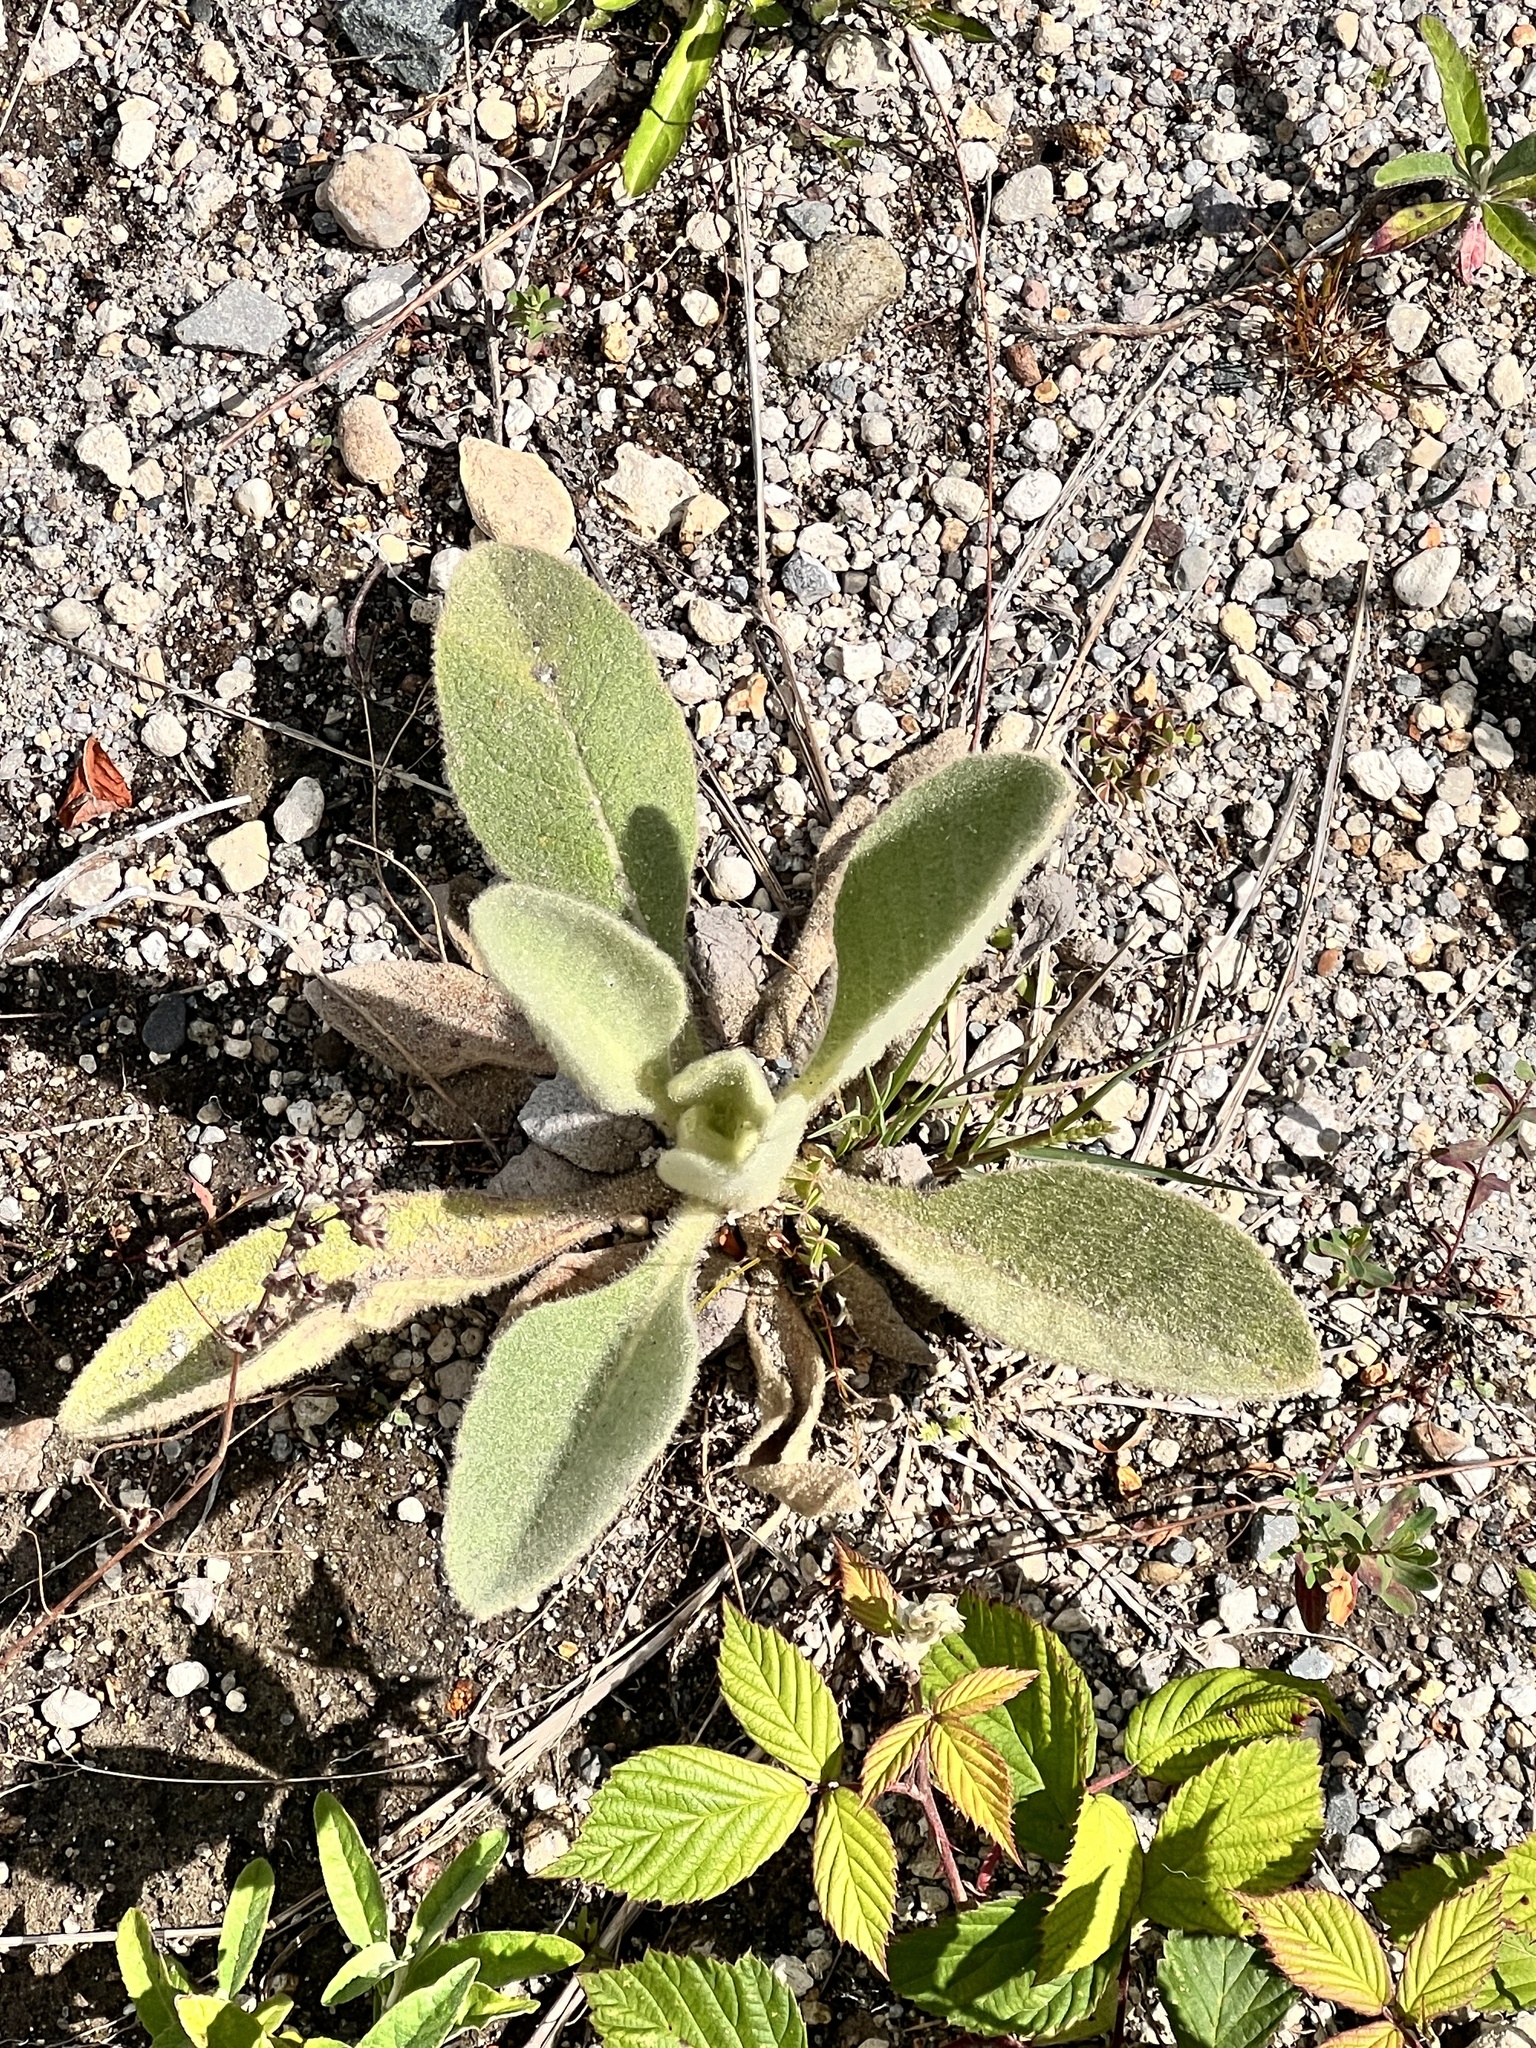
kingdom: Plantae
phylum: Tracheophyta
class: Magnoliopsida
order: Lamiales
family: Scrophulariaceae
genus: Verbascum
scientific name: Verbascum thapsus
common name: Common mullein
